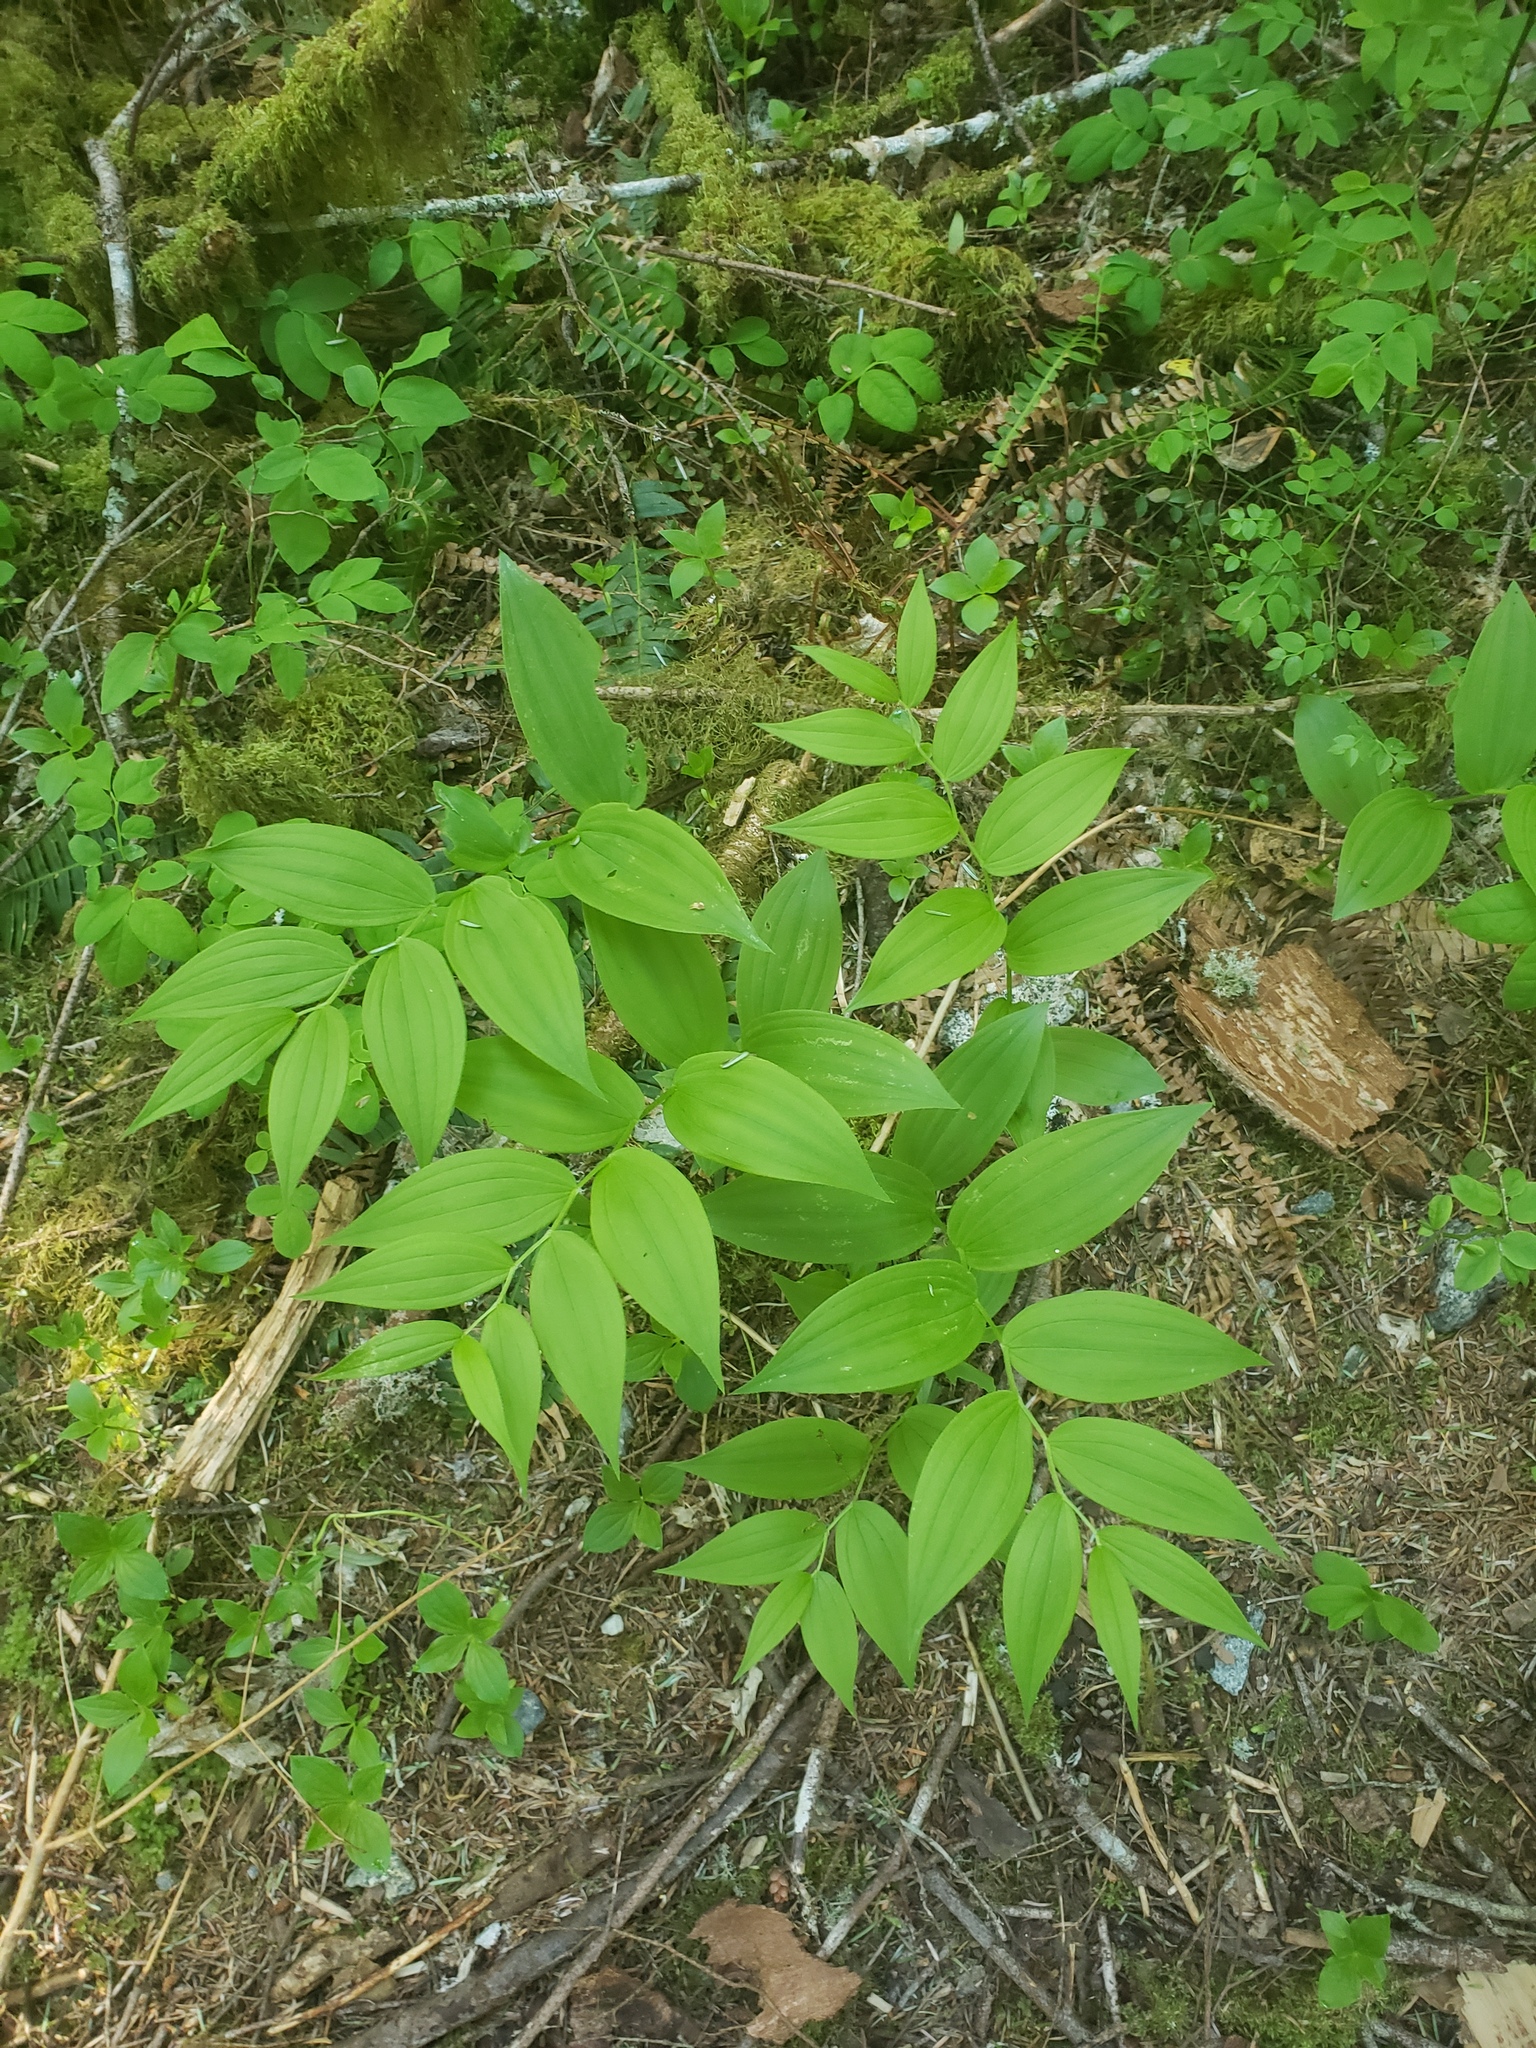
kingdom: Plantae
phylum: Tracheophyta
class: Liliopsida
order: Liliales
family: Liliaceae
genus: Streptopus
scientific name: Streptopus lanceolatus
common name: Rose mandarin
